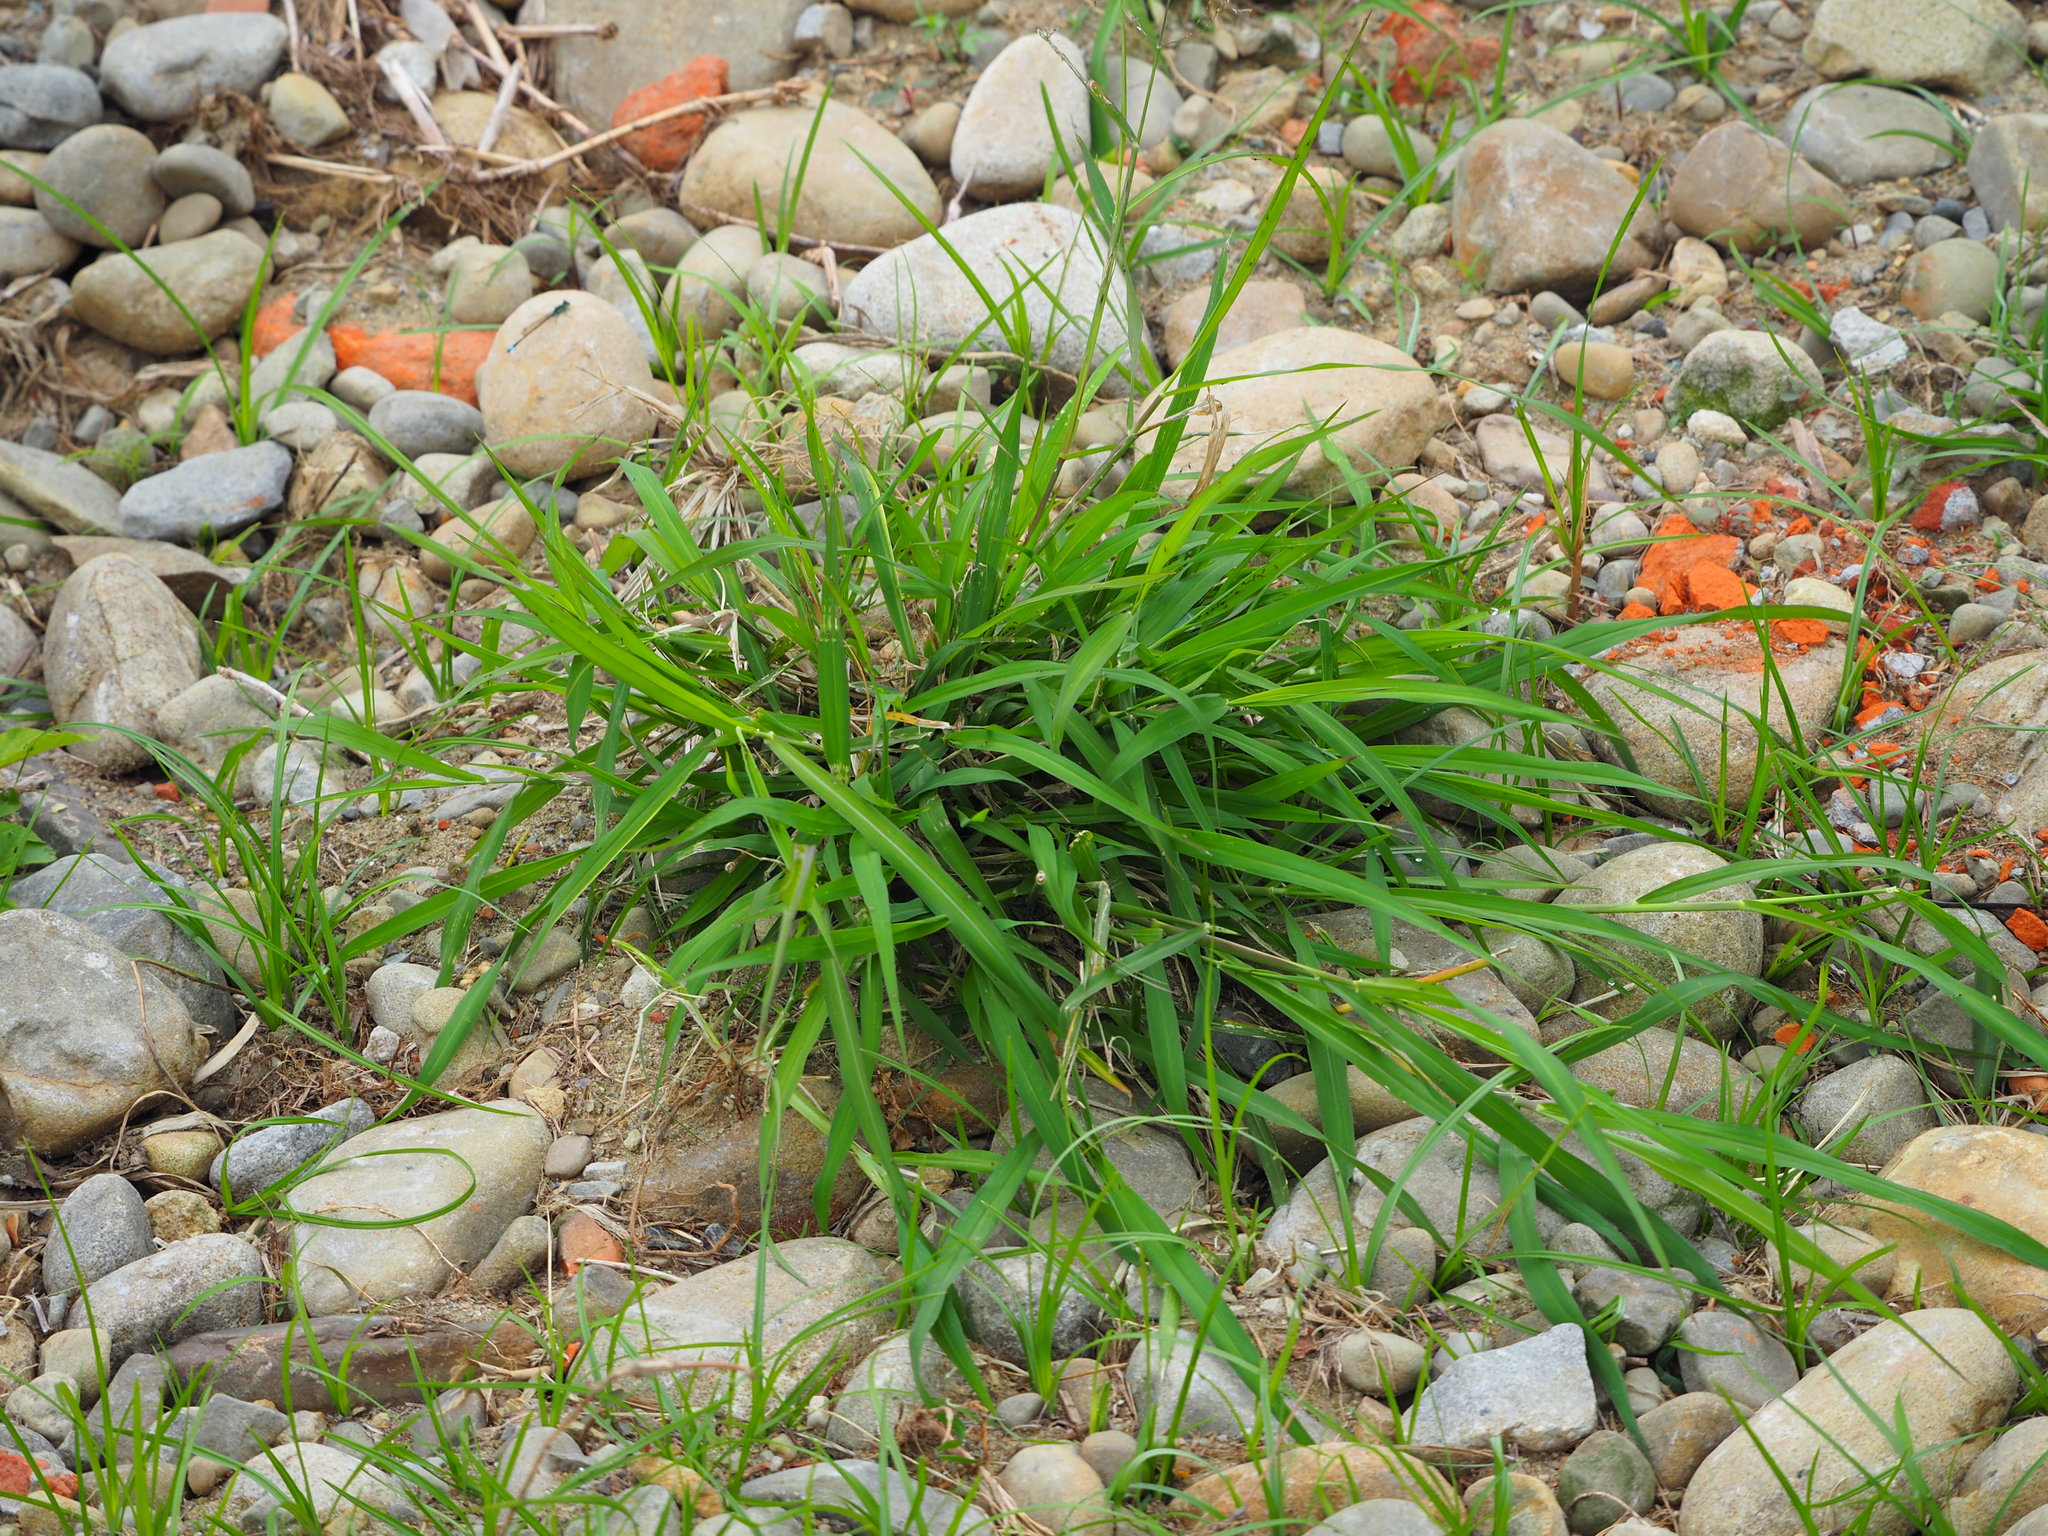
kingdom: Plantae
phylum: Tracheophyta
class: Liliopsida
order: Poales
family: Poaceae
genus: Megathyrsus
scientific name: Megathyrsus maximus
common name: Guineagrass
